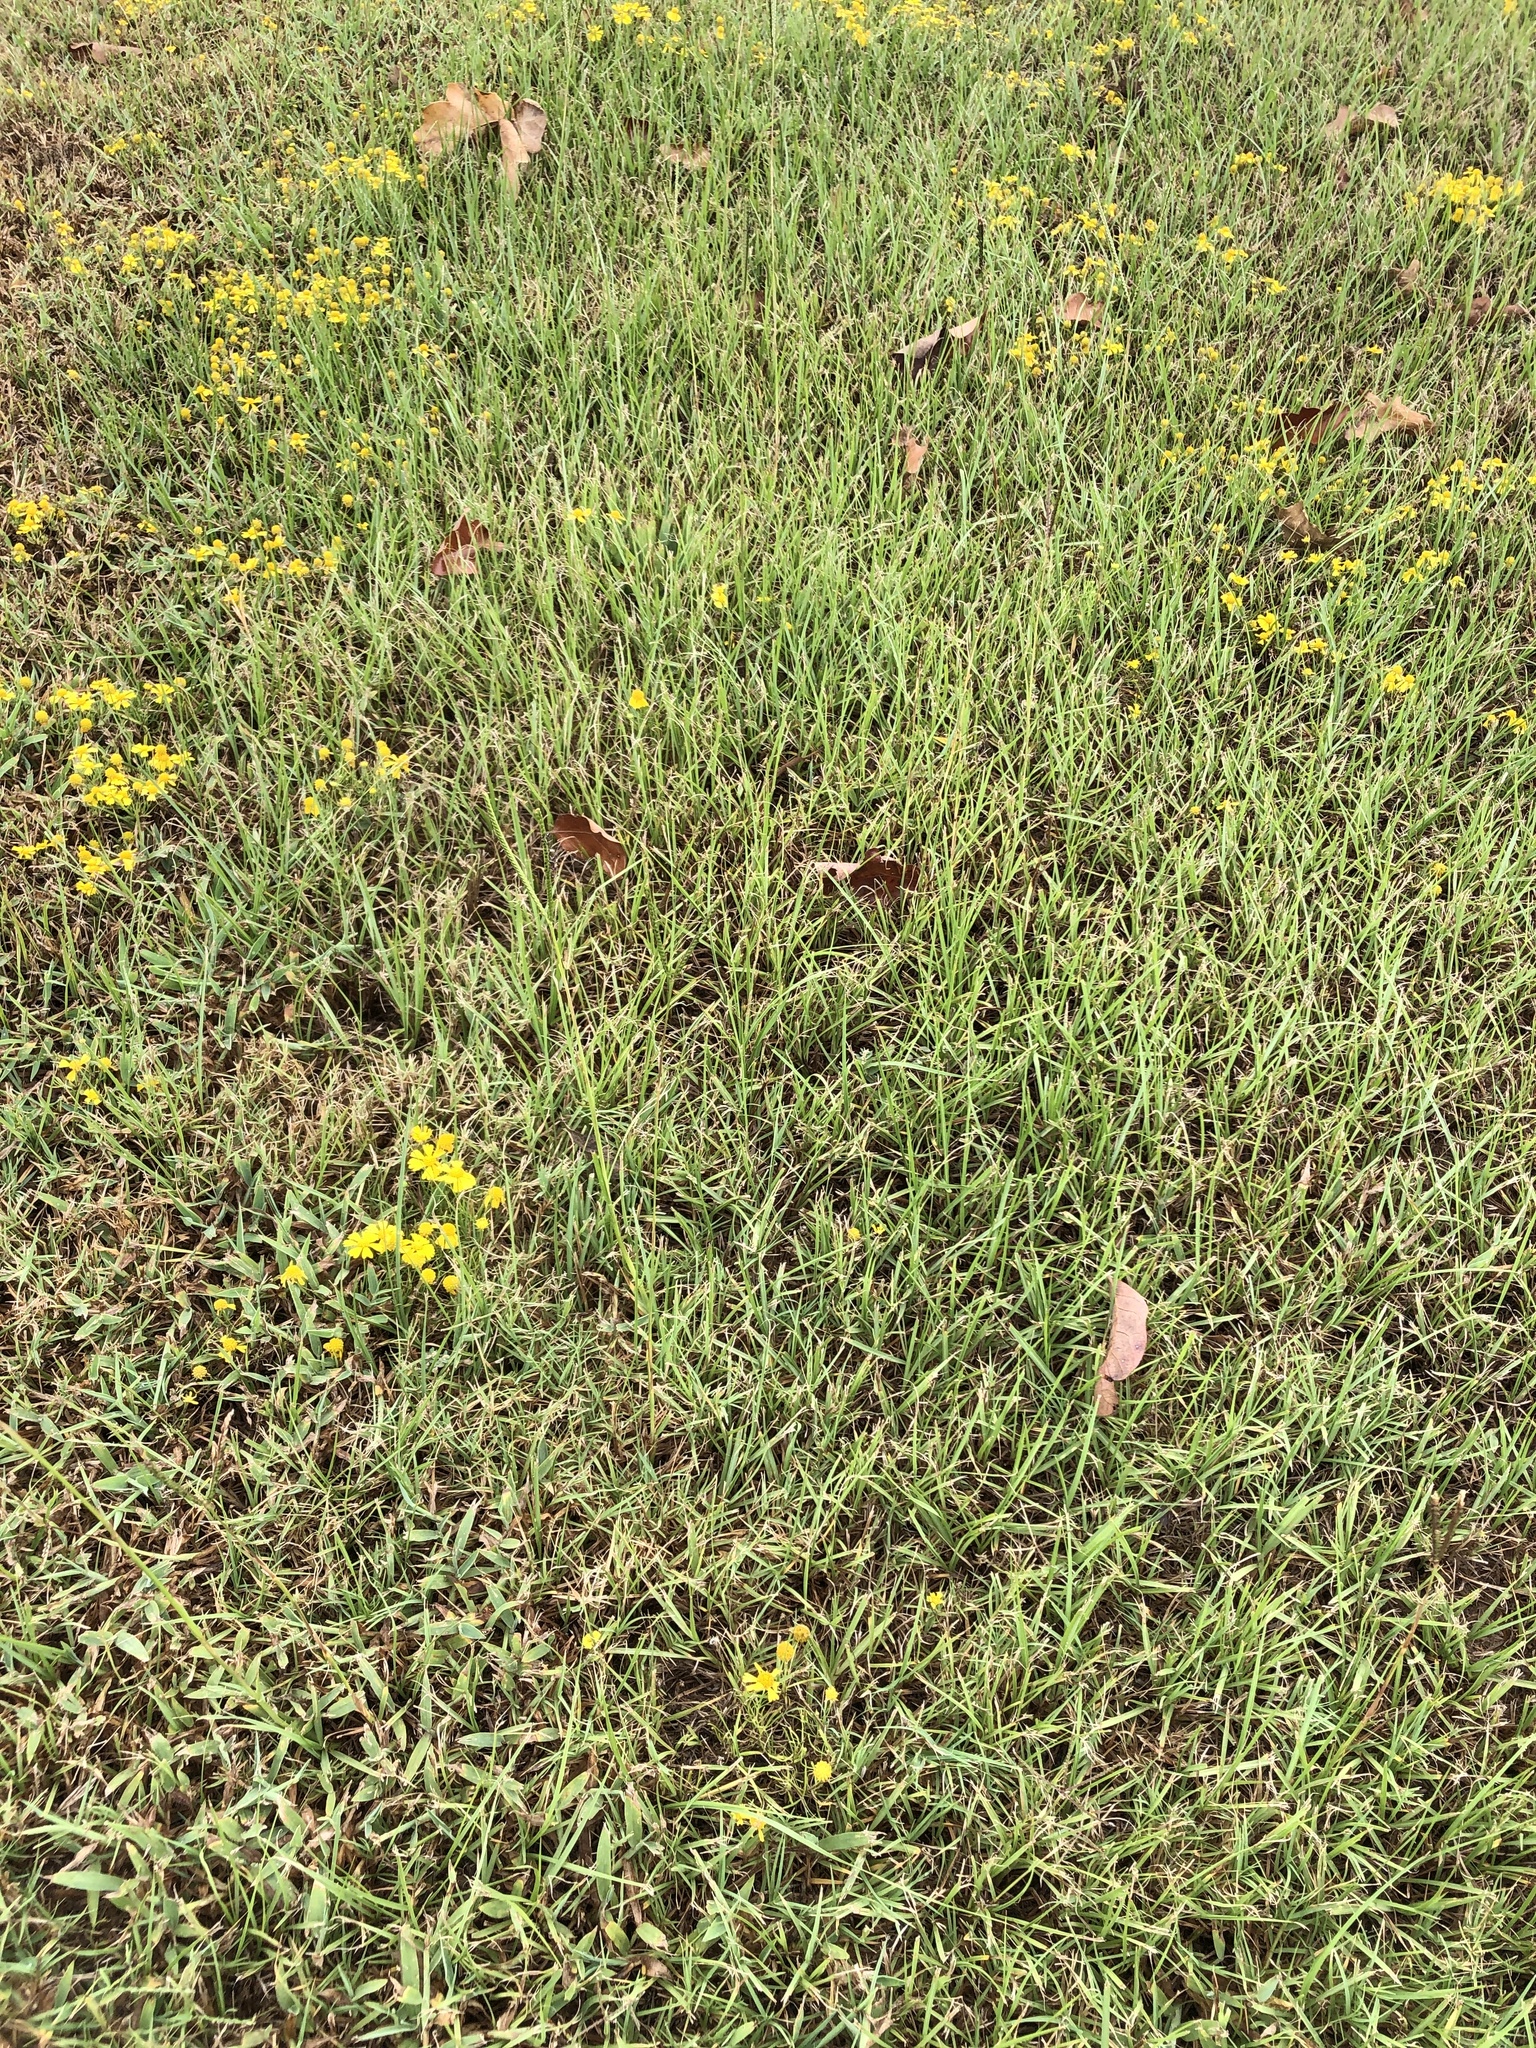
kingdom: Plantae
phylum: Tracheophyta
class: Liliopsida
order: Poales
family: Poaceae
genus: Paspalum
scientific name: Paspalum notatum
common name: Bahiagrass
